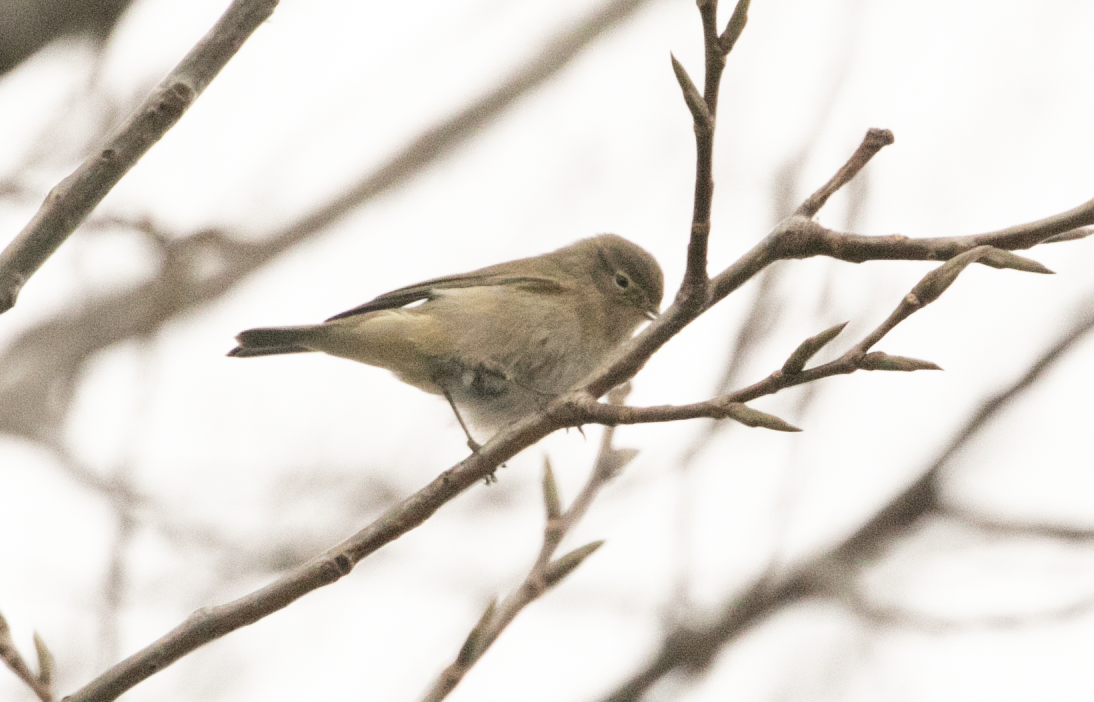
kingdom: Animalia
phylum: Chordata
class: Aves
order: Passeriformes
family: Phylloscopidae
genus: Phylloscopus
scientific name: Phylloscopus collybita
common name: Common chiffchaff
